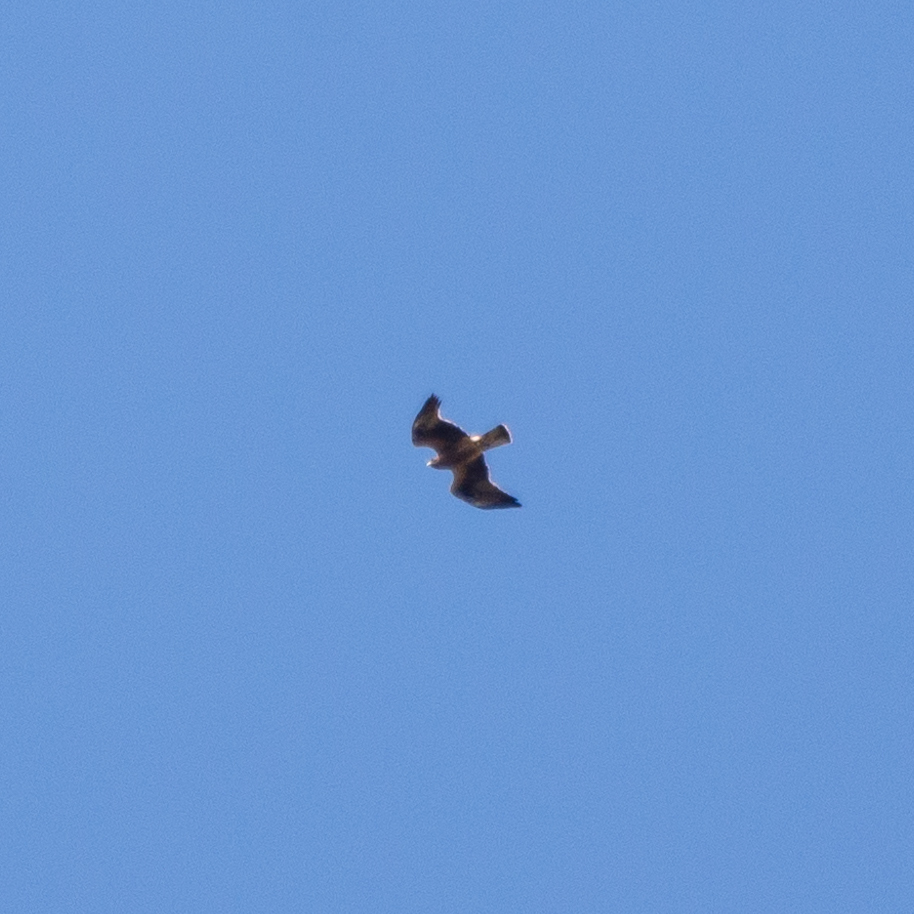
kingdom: Animalia
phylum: Chordata
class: Aves
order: Accipitriformes
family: Accipitridae
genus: Hieraaetus
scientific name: Hieraaetus pennatus
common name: Booted eagle
